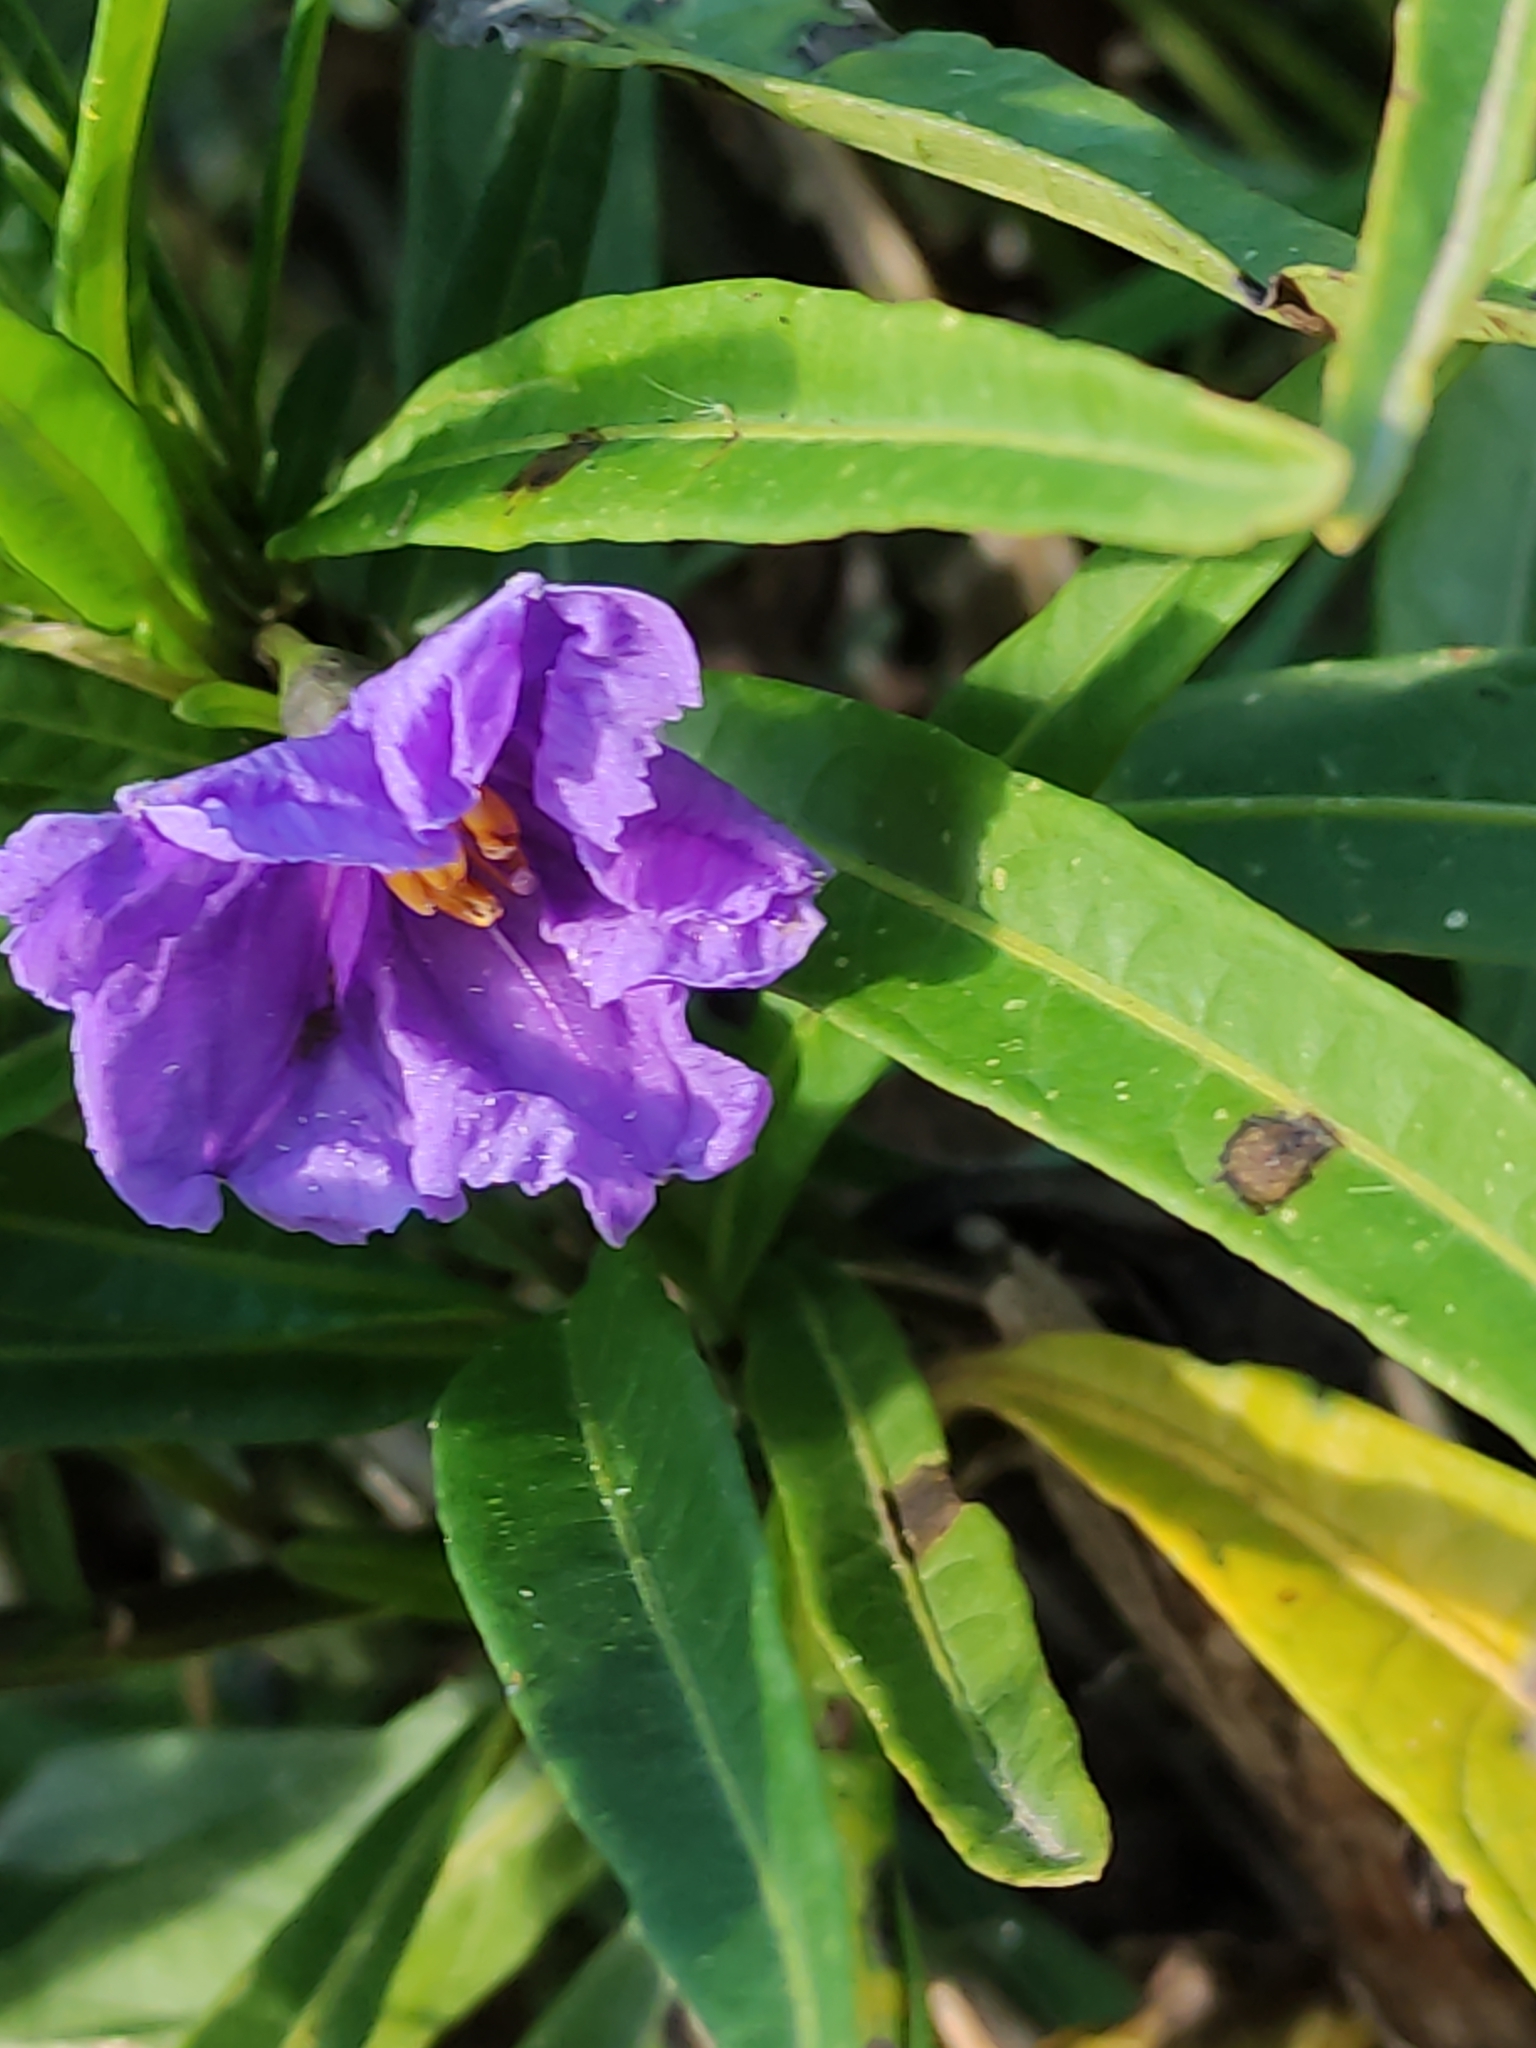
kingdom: Plantae
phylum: Tracheophyta
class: Magnoliopsida
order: Solanales
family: Solanaceae
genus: Solanum
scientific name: Solanum laciniatum
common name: Kangaroo-apple
